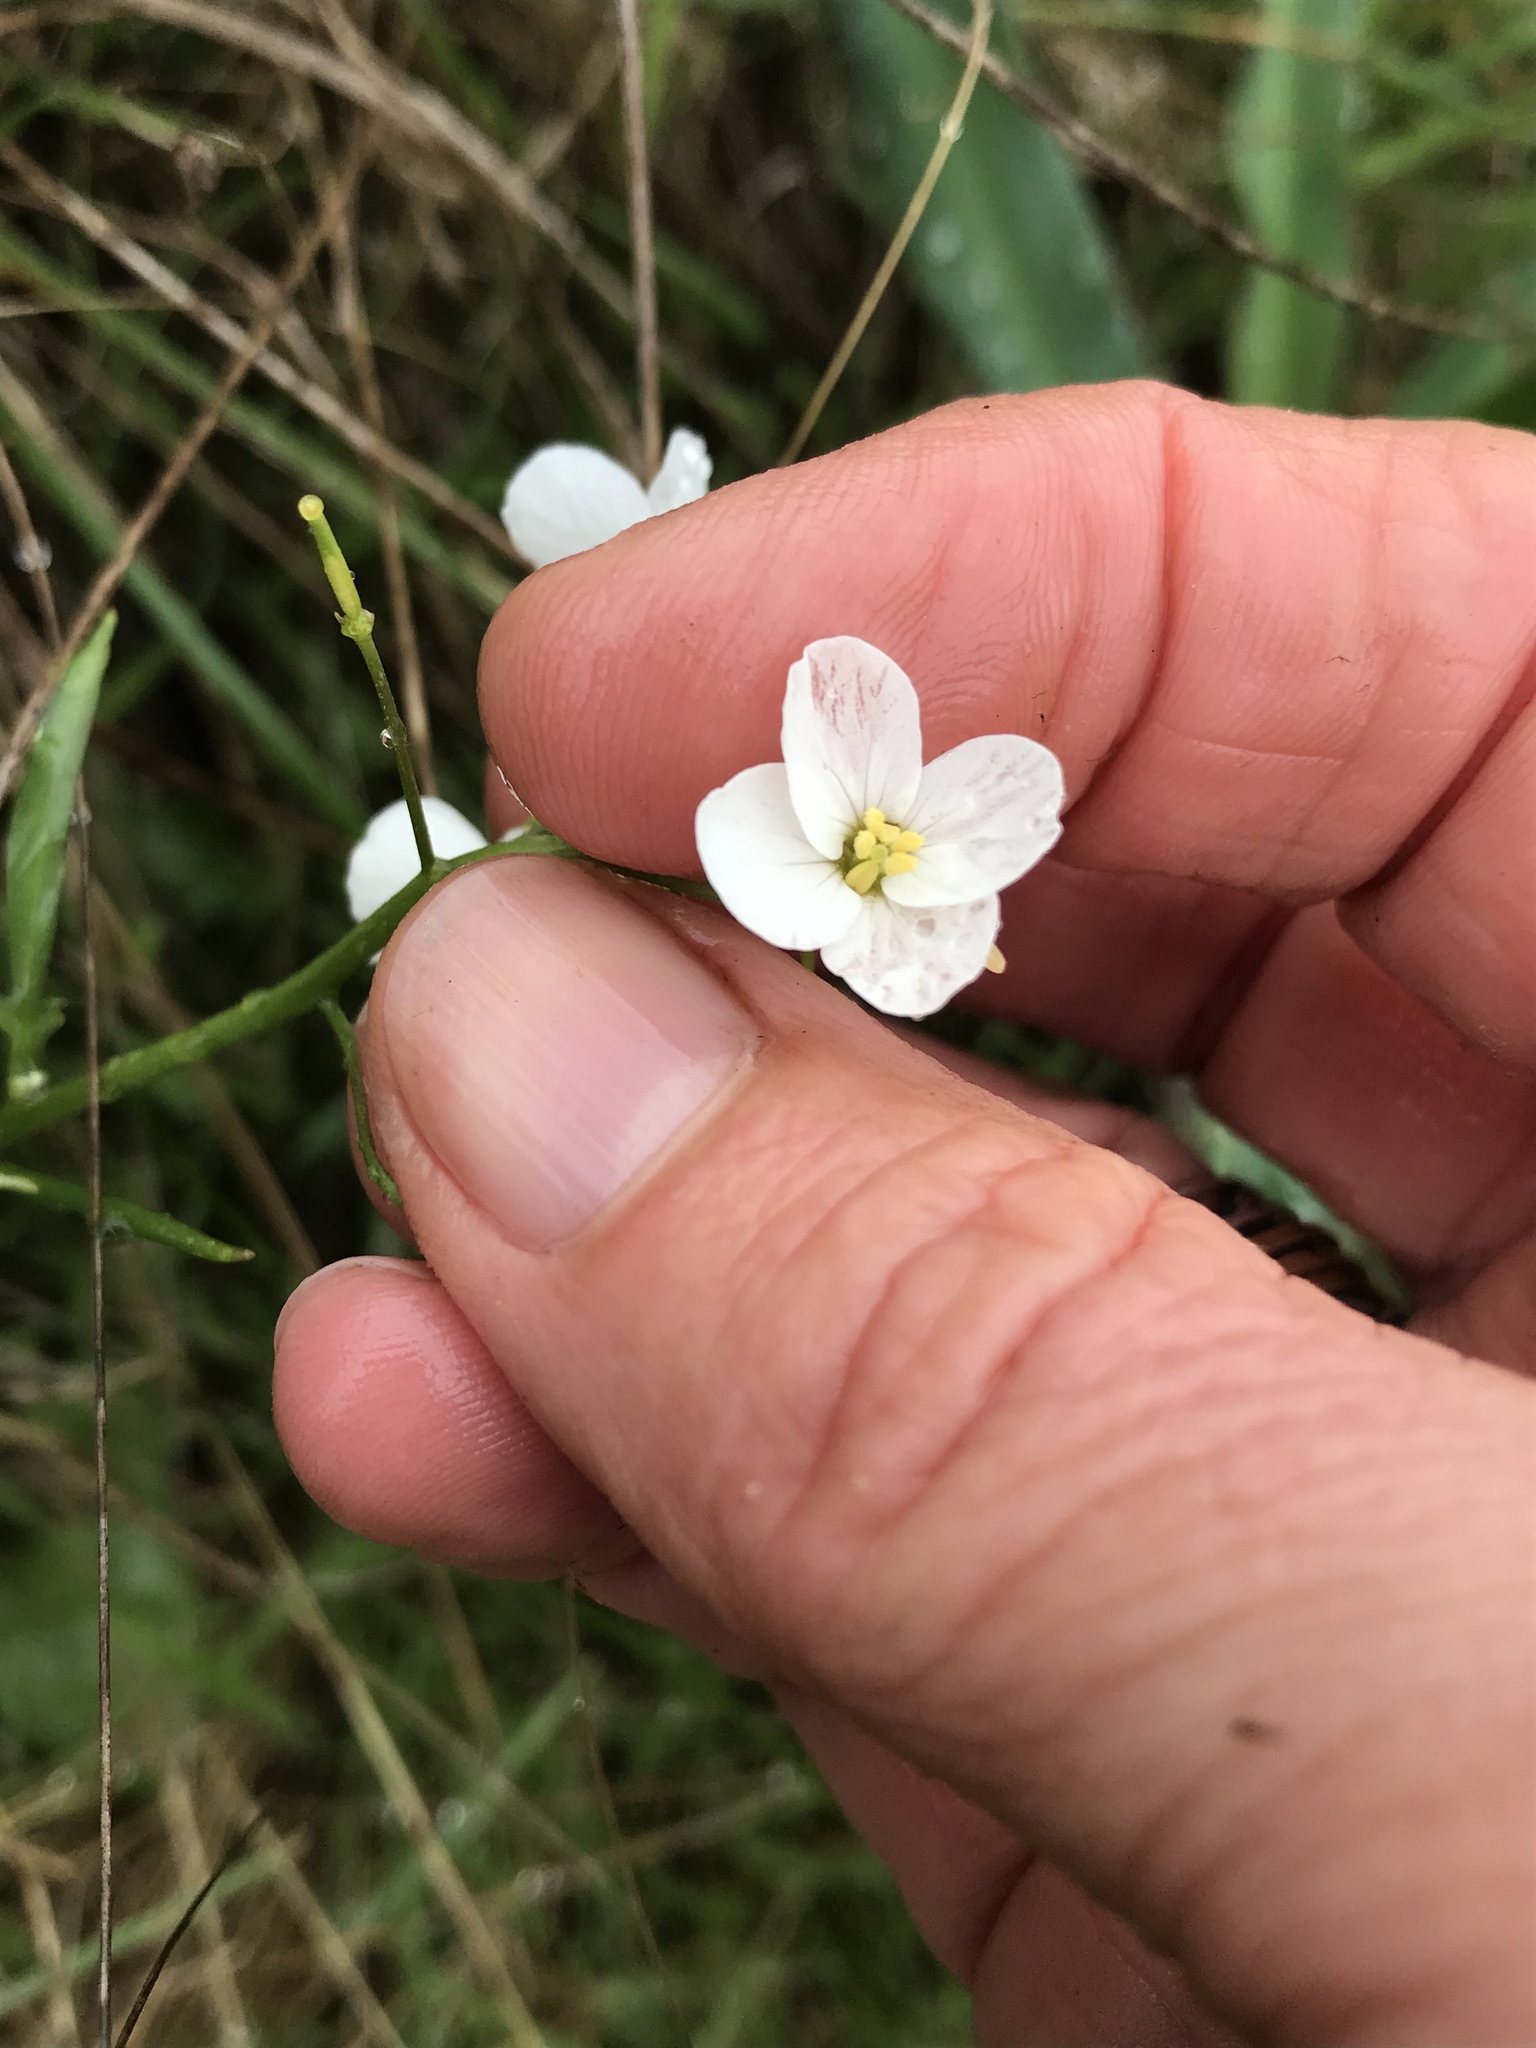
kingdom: Plantae
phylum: Tracheophyta
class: Magnoliopsida
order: Brassicales
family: Brassicaceae
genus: Cardamine
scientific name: Cardamine californica
